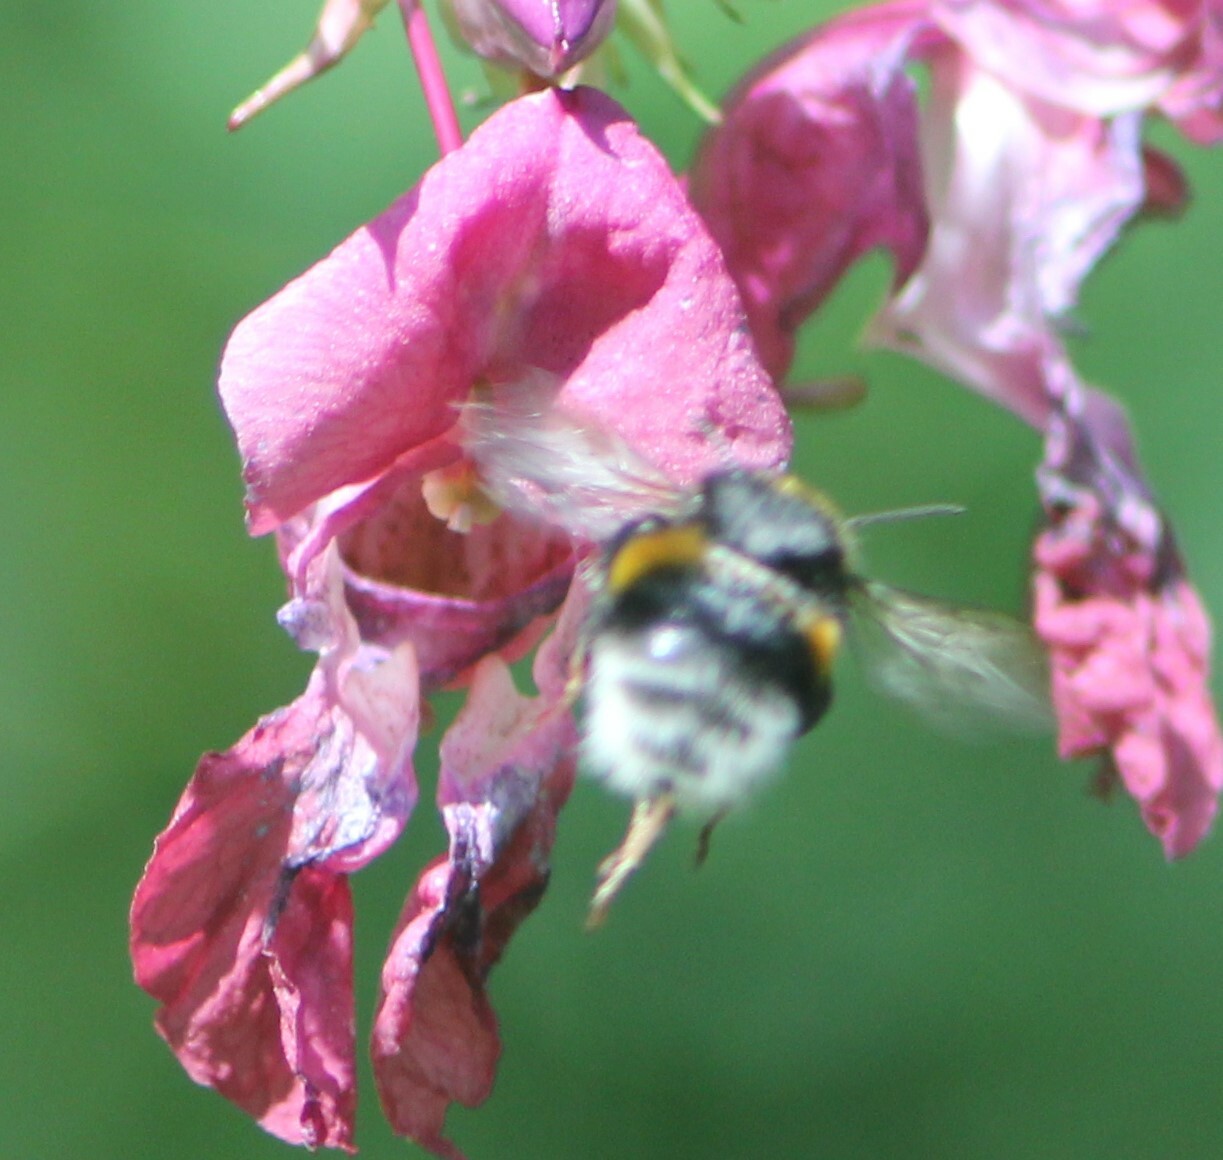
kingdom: Animalia
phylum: Arthropoda
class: Insecta
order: Hymenoptera
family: Apidae
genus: Bombus
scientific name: Bombus
